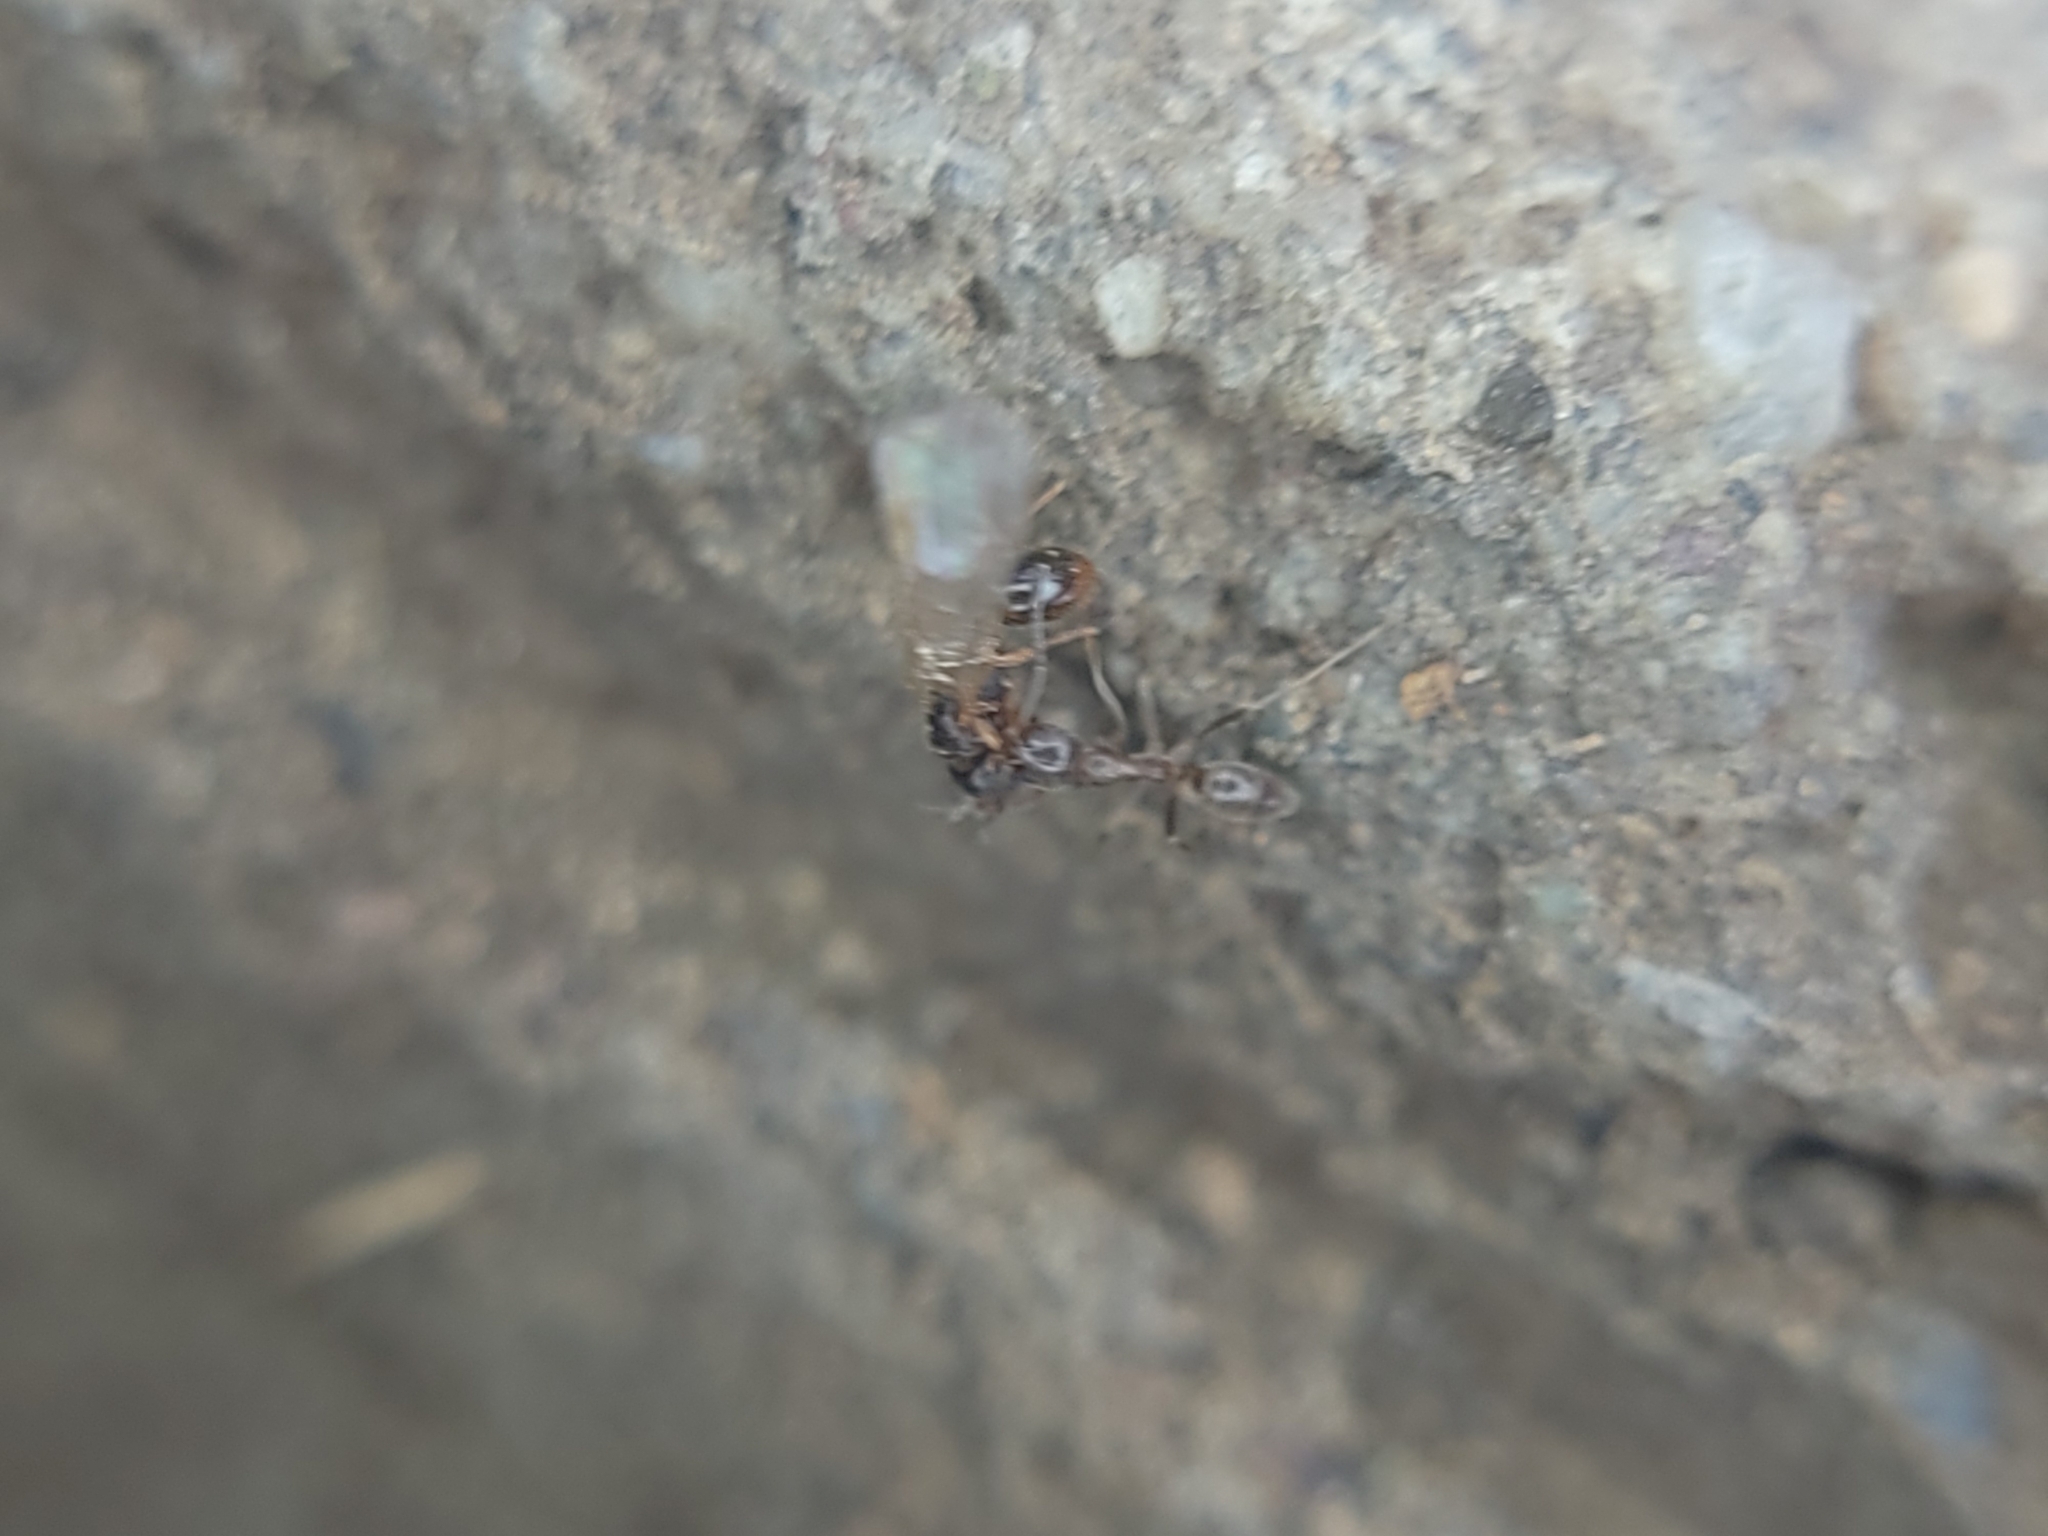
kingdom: Animalia
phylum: Arthropoda
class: Insecta
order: Hymenoptera
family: Formicidae
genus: Linepithema
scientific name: Linepithema humile
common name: Argentine ant
